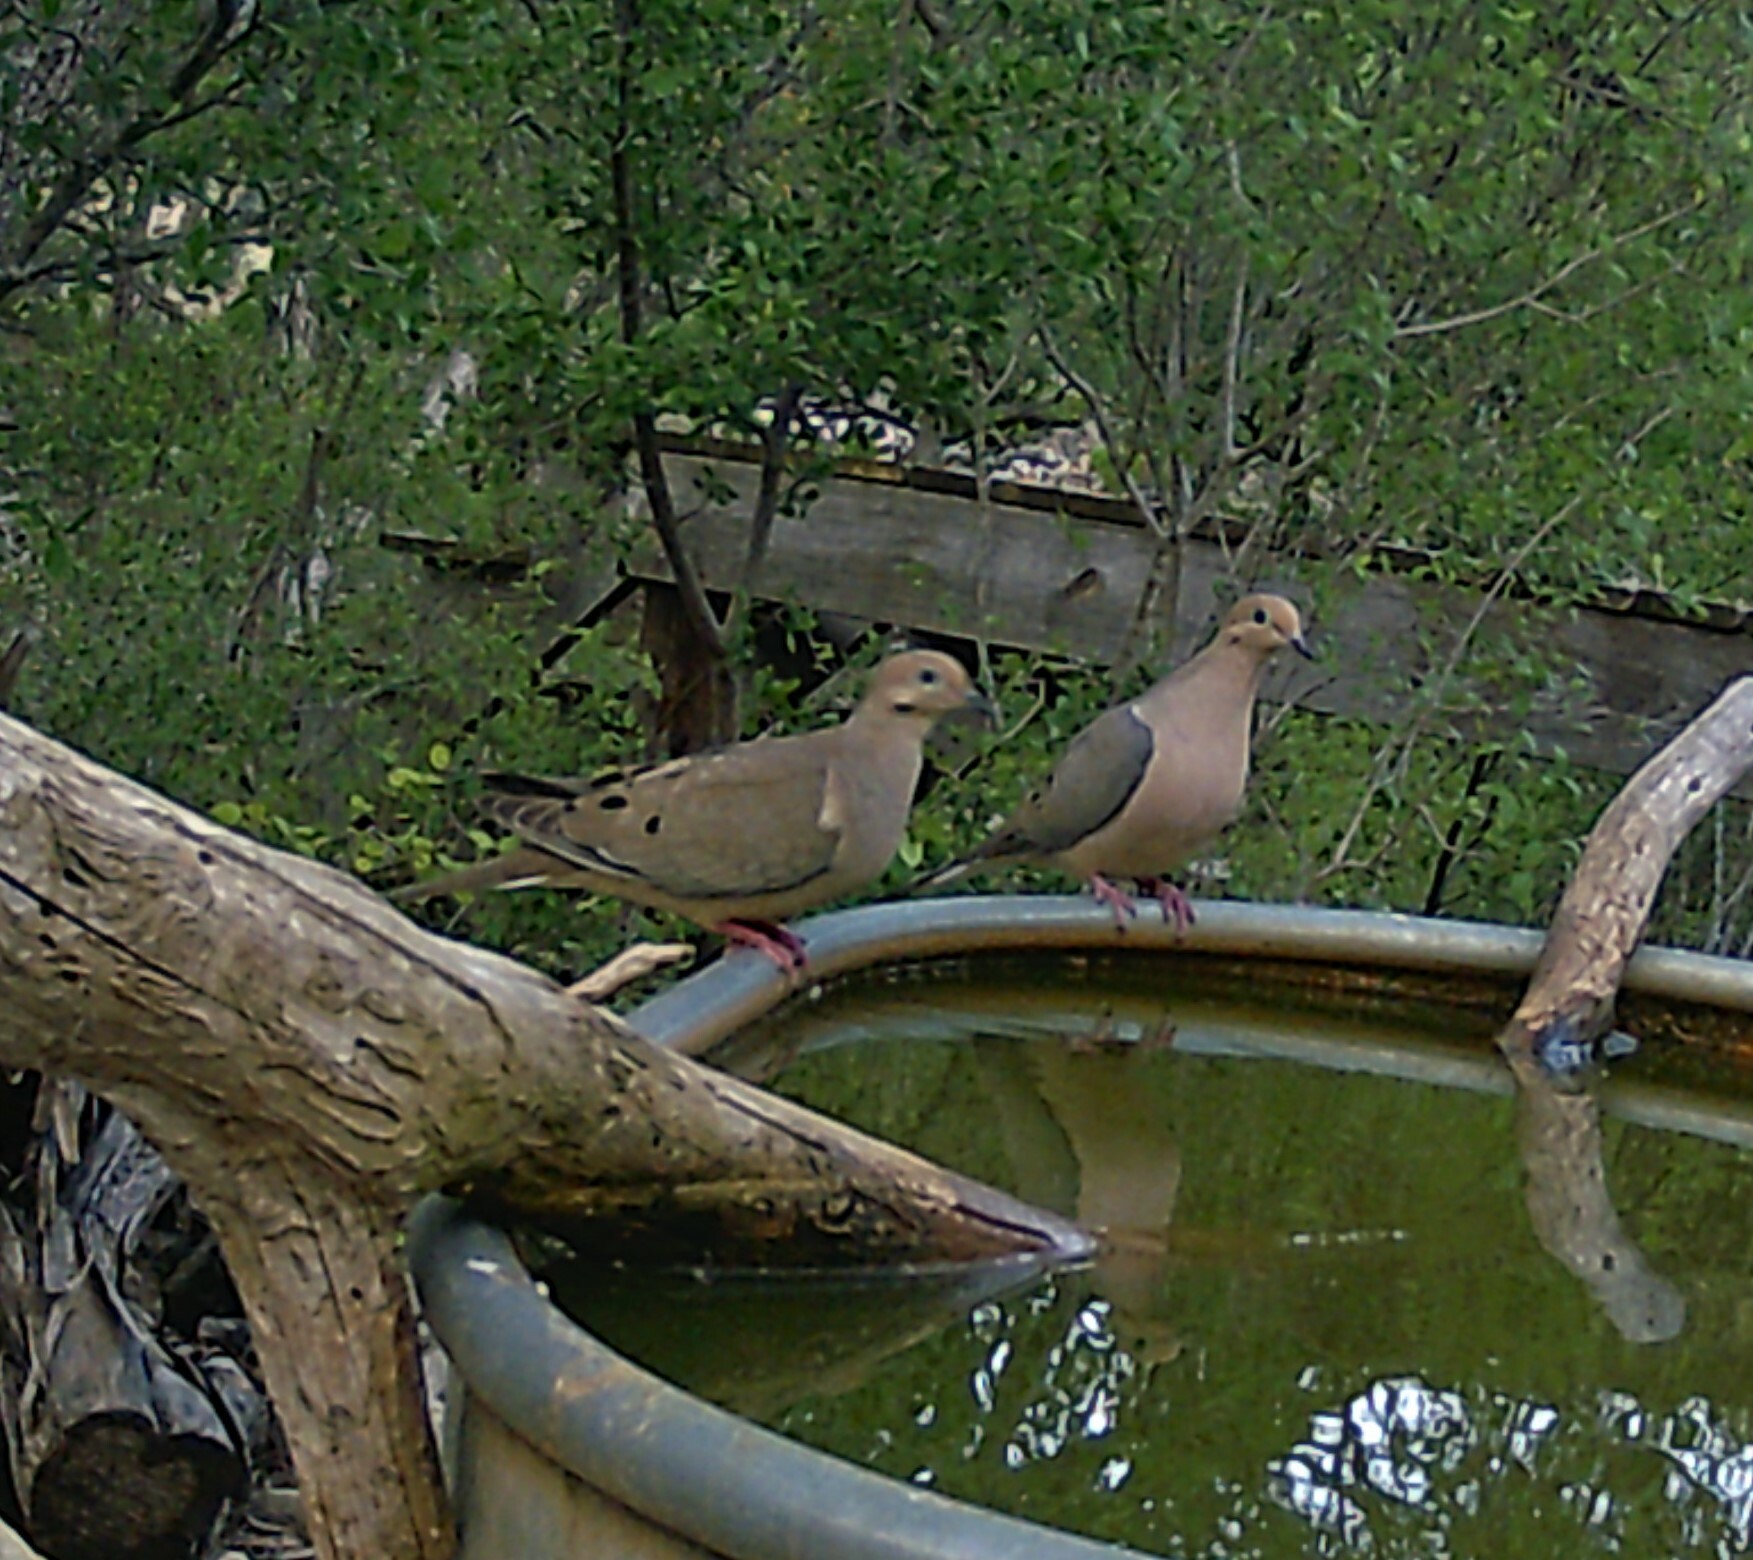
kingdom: Animalia
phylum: Chordata
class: Aves
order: Columbiformes
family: Columbidae
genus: Zenaida
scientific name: Zenaida macroura
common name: Mourning dove
